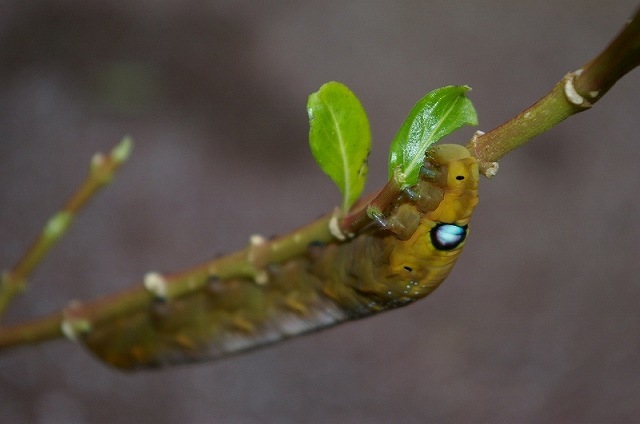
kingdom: Animalia
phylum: Arthropoda
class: Insecta
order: Lepidoptera
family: Sphingidae
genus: Daphnis
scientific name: Daphnis nerii
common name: Oleander hawk-moth
